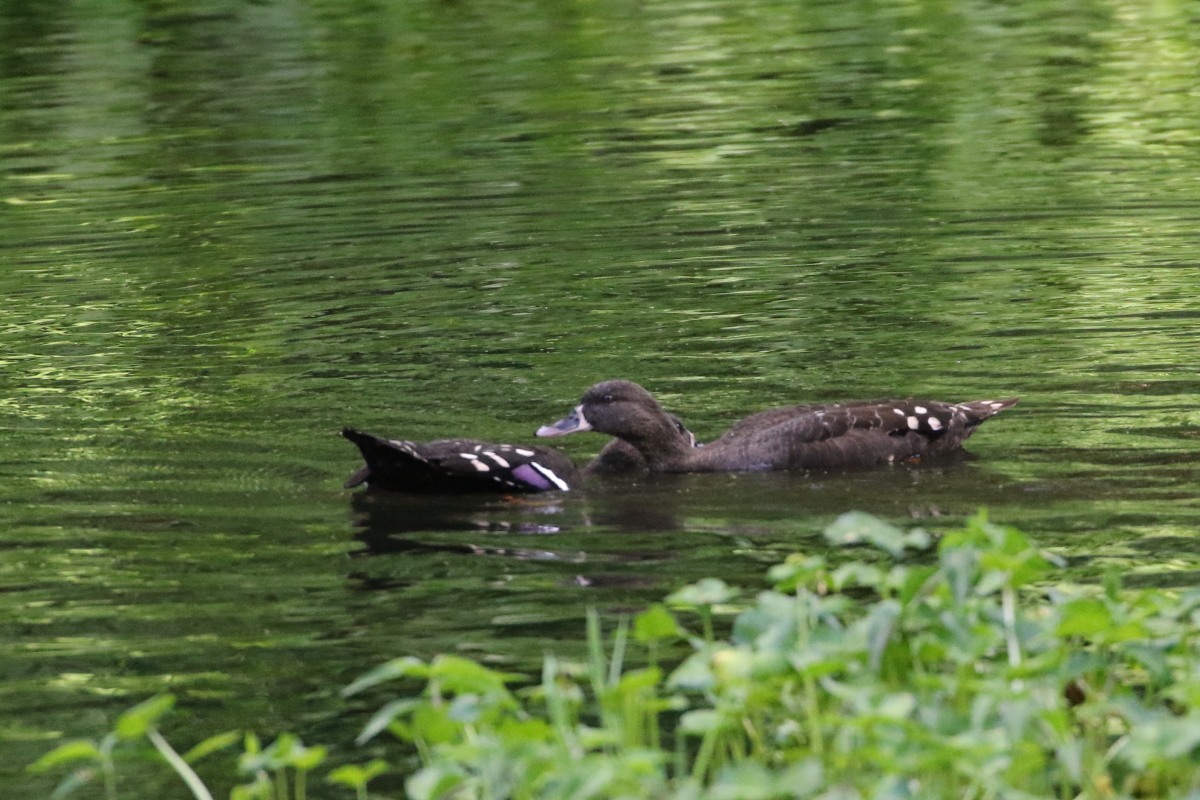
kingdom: Animalia
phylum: Chordata
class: Aves
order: Anseriformes
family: Anatidae
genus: Anas
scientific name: Anas sparsa
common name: African black duck
